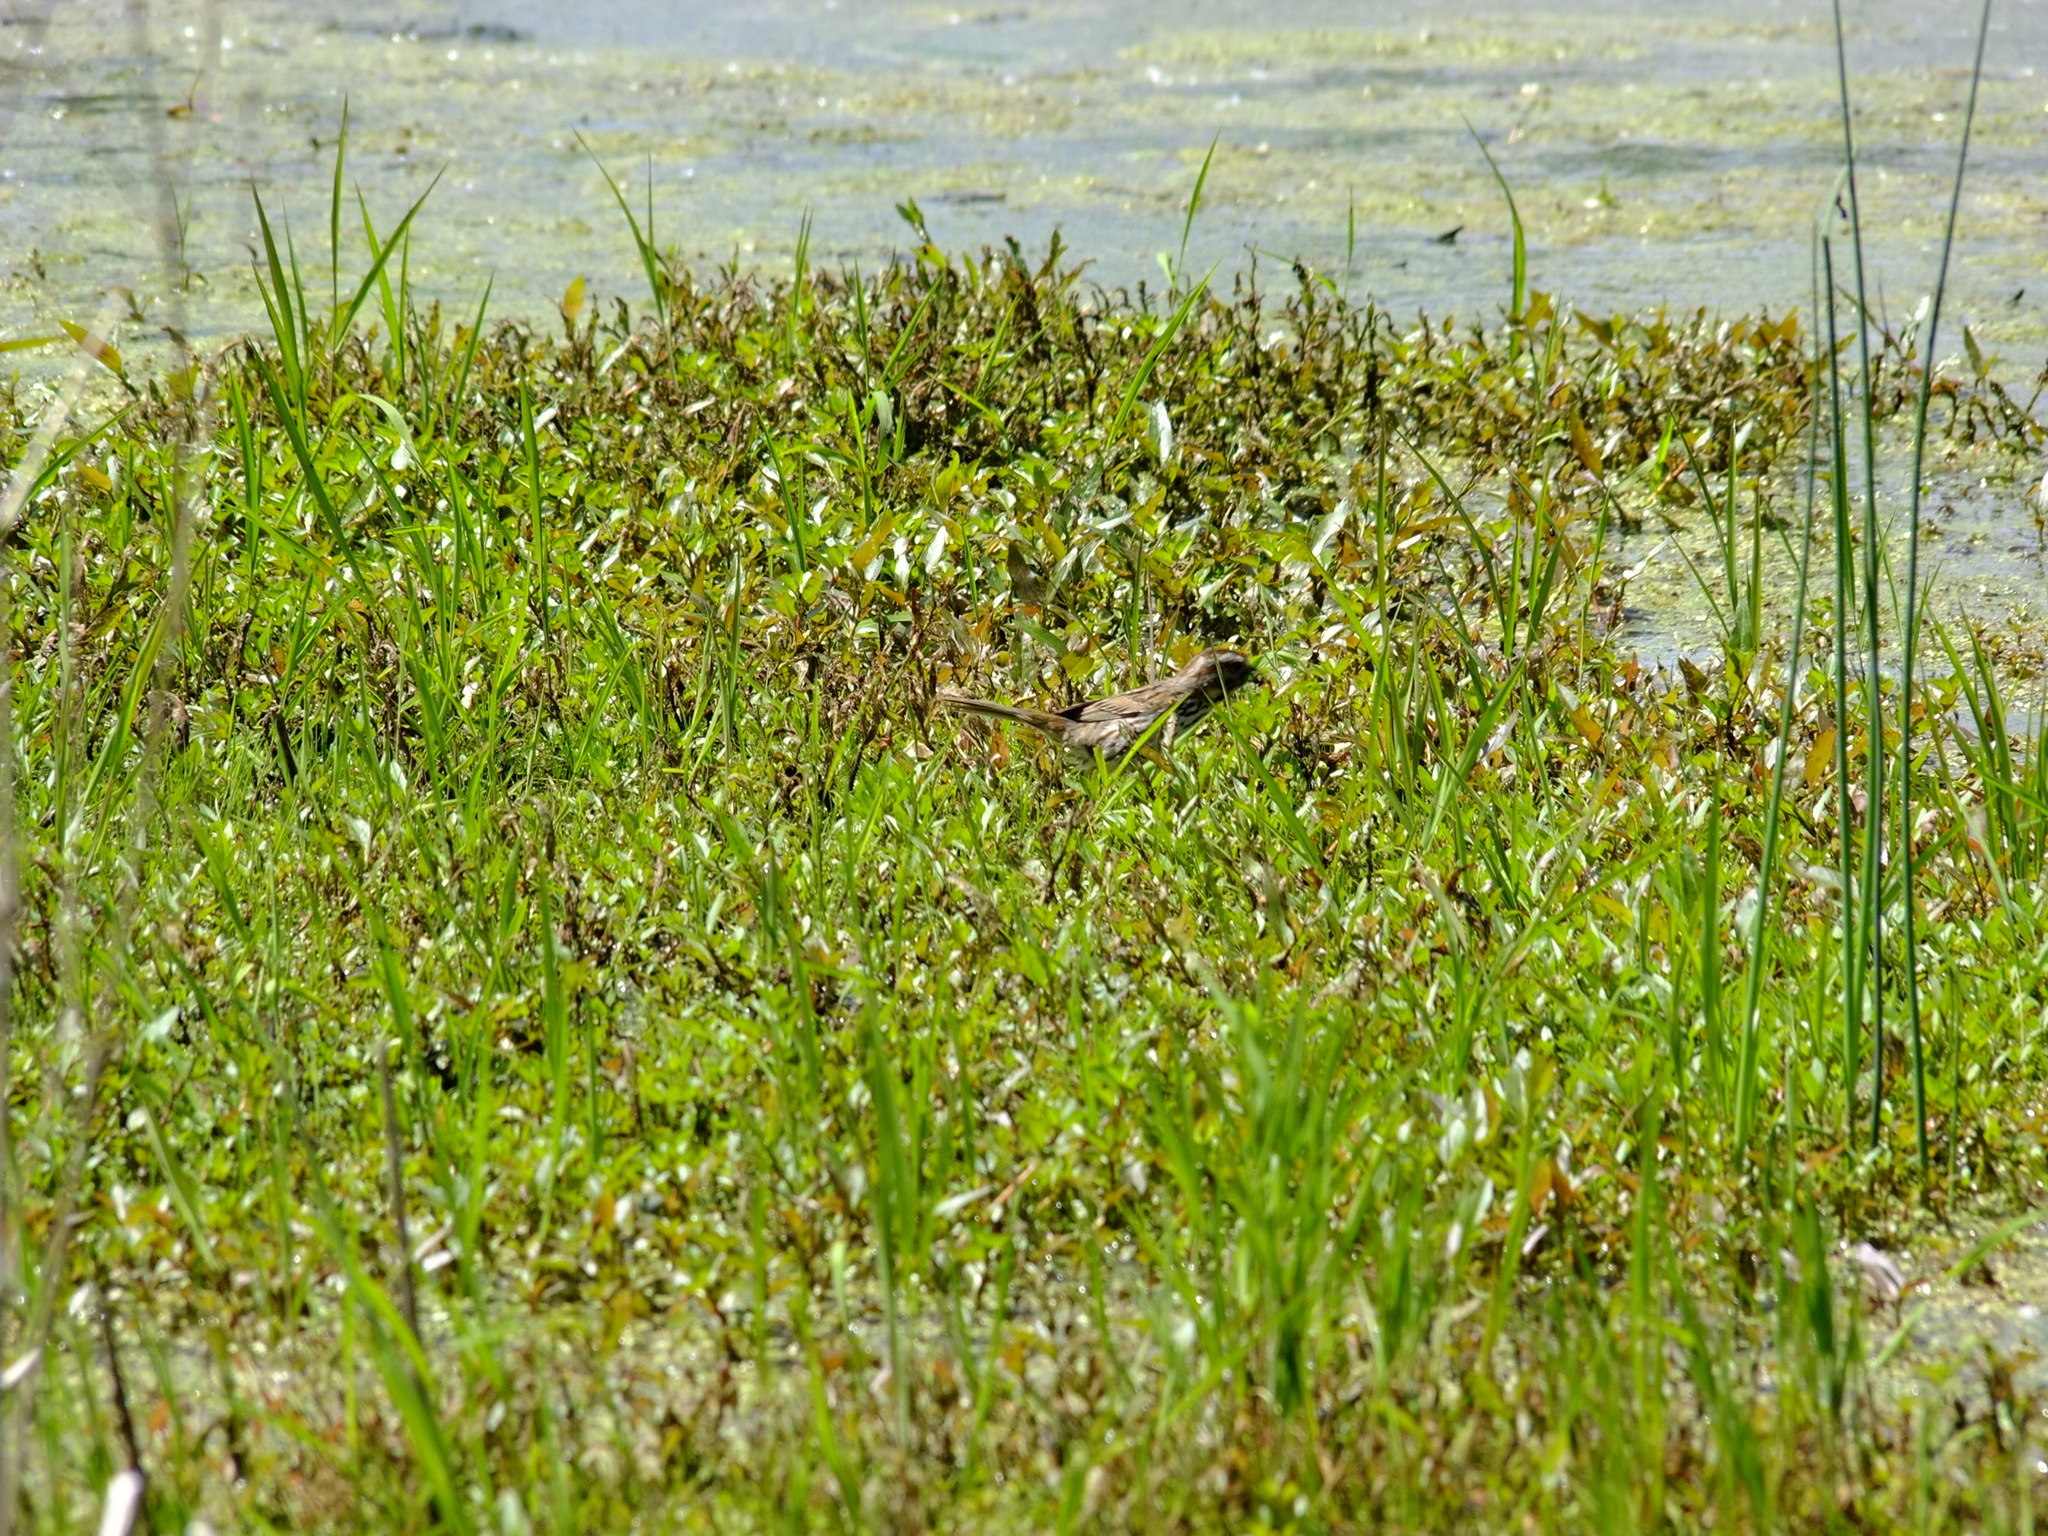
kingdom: Animalia
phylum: Chordata
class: Aves
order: Passeriformes
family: Passerellidae
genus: Melospiza
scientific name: Melospiza melodia
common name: Song sparrow
